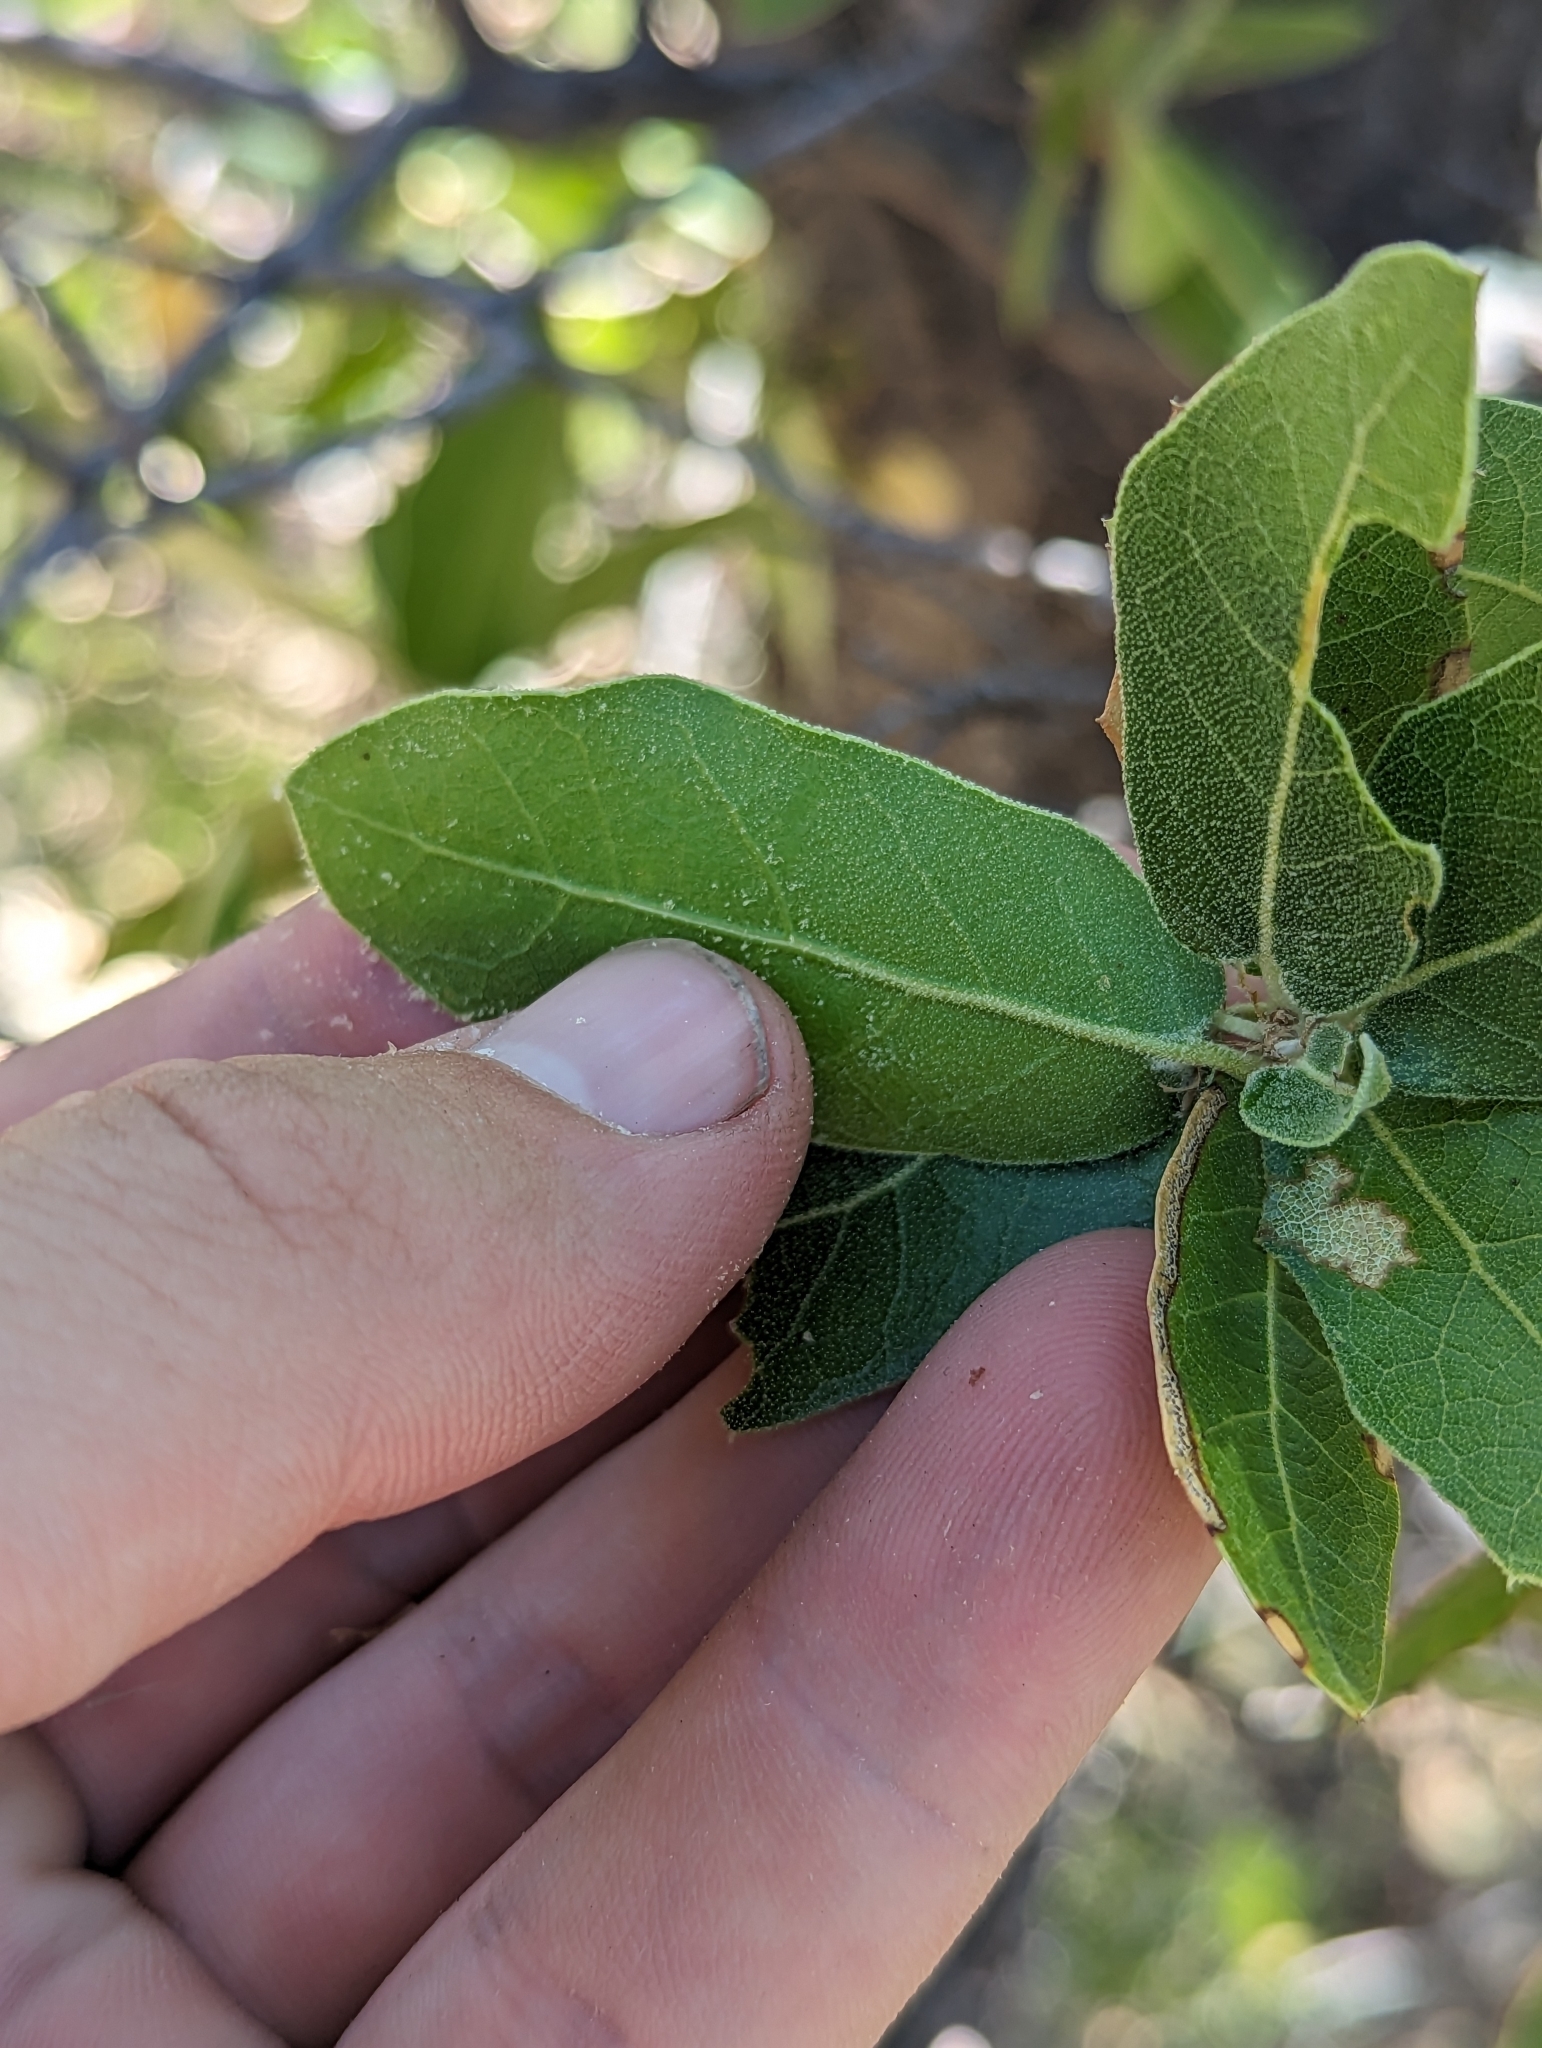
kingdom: Plantae
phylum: Tracheophyta
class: Magnoliopsida
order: Fagales
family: Fagaceae
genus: Quercus
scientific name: Quercus emoryi
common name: Emory oak
